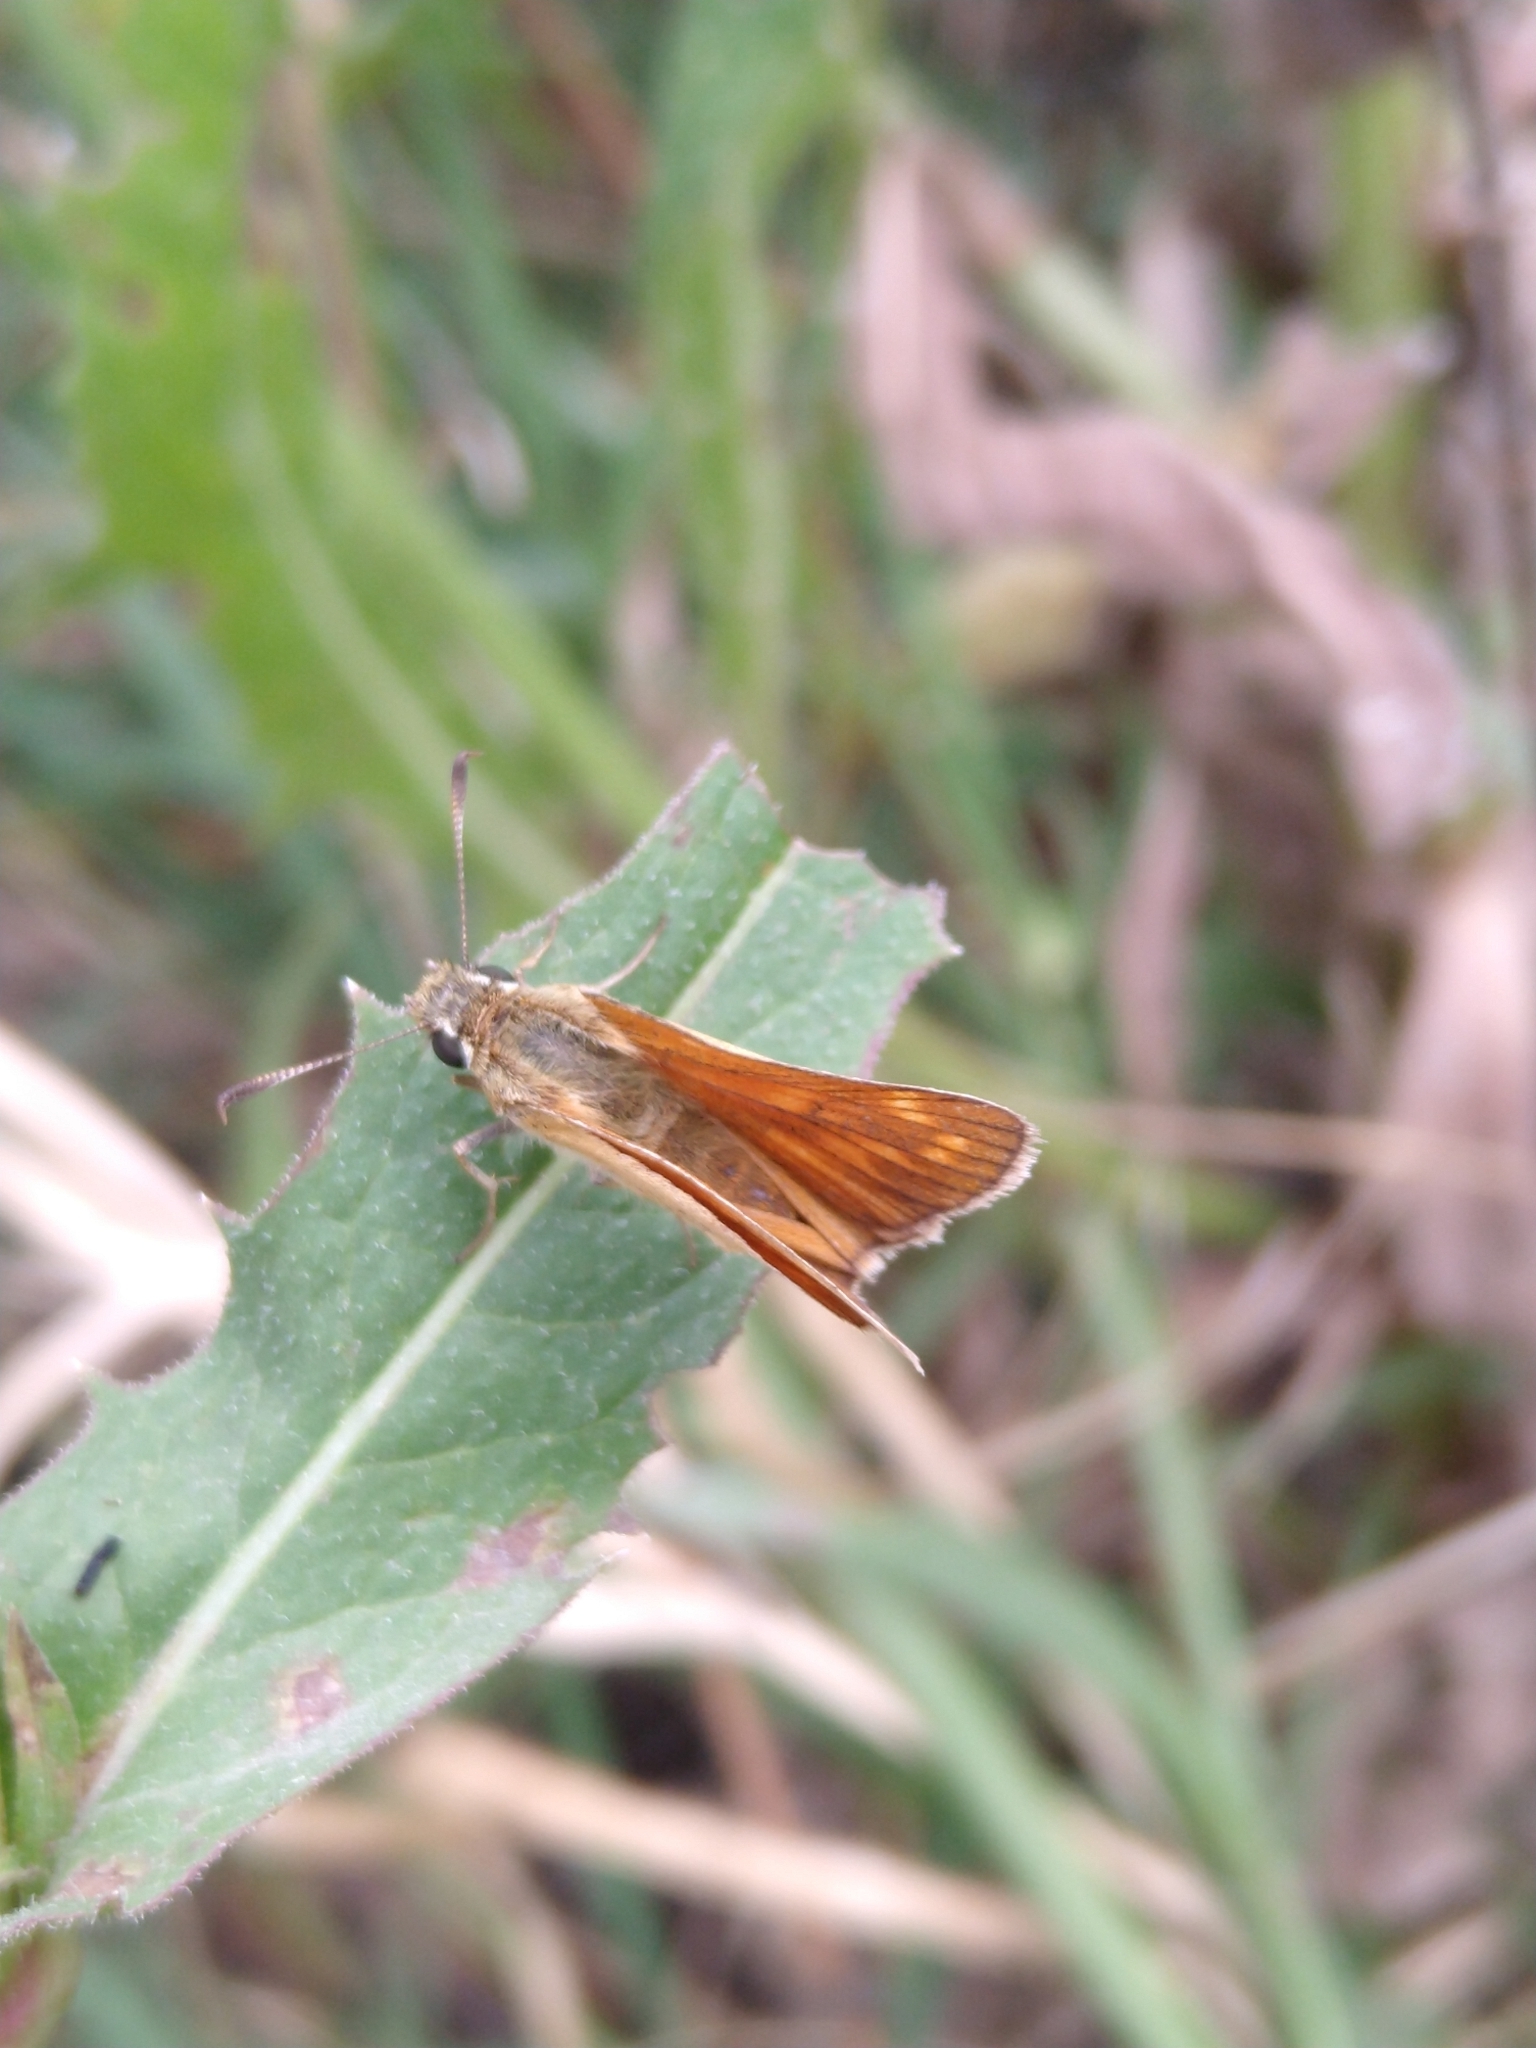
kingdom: Animalia
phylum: Arthropoda
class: Insecta
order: Lepidoptera
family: Hesperiidae
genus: Ochlodes
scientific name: Ochlodes venata
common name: Large skipper
